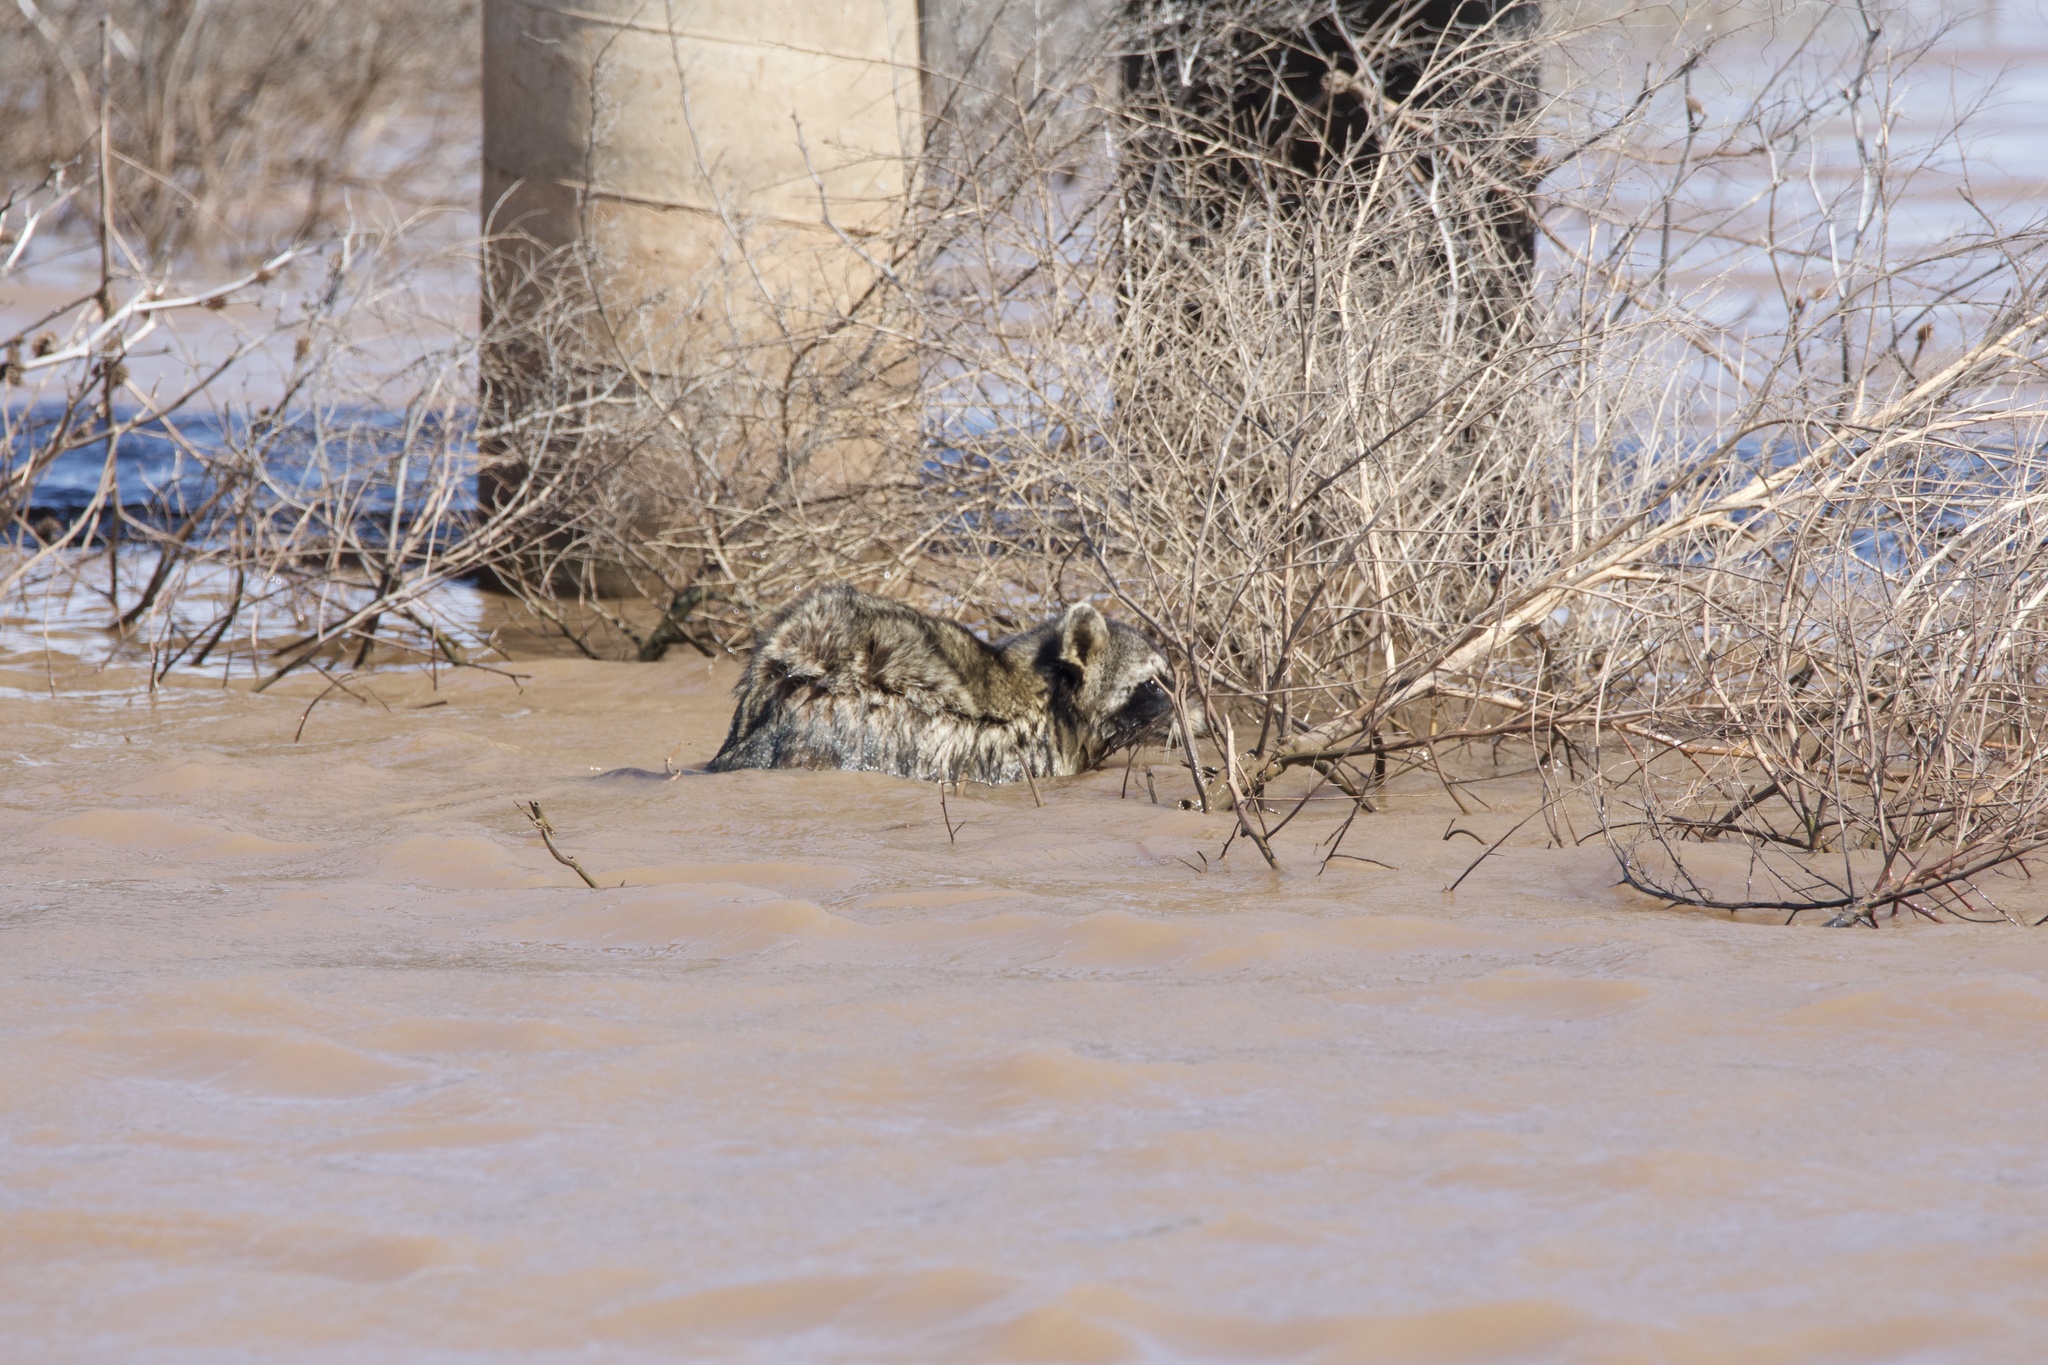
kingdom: Animalia
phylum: Chordata
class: Mammalia
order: Carnivora
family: Procyonidae
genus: Procyon
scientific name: Procyon lotor
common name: Raccoon
